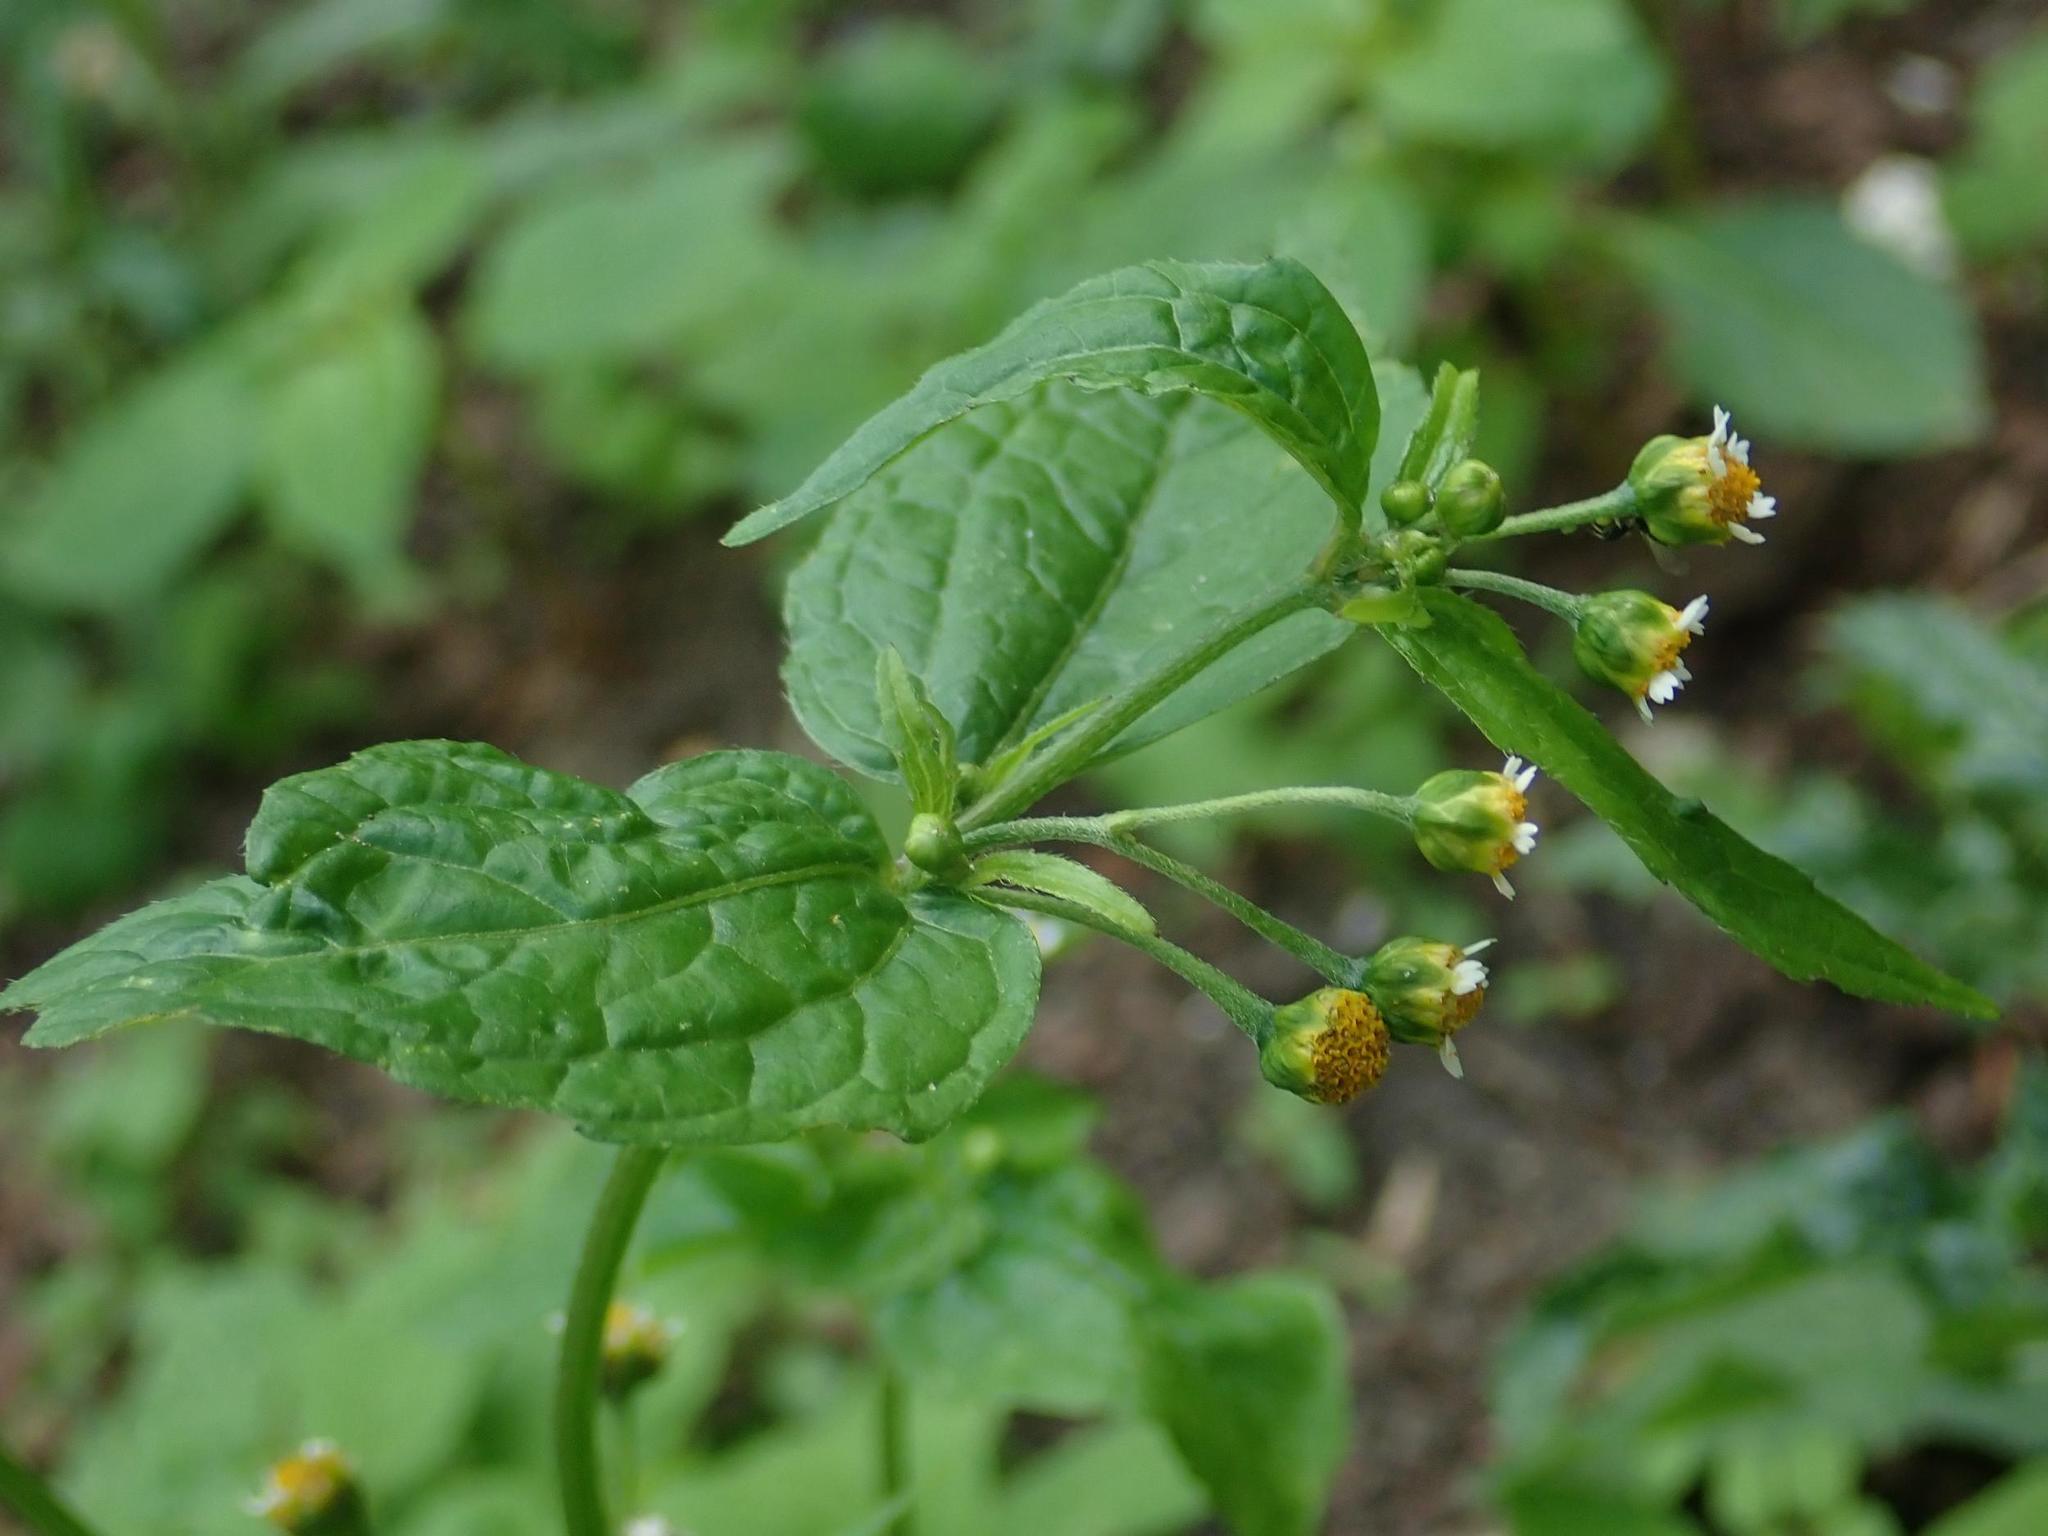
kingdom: Plantae
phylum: Tracheophyta
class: Magnoliopsida
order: Asterales
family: Asteraceae
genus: Galinsoga
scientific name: Galinsoga parviflora
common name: Gallant soldier
